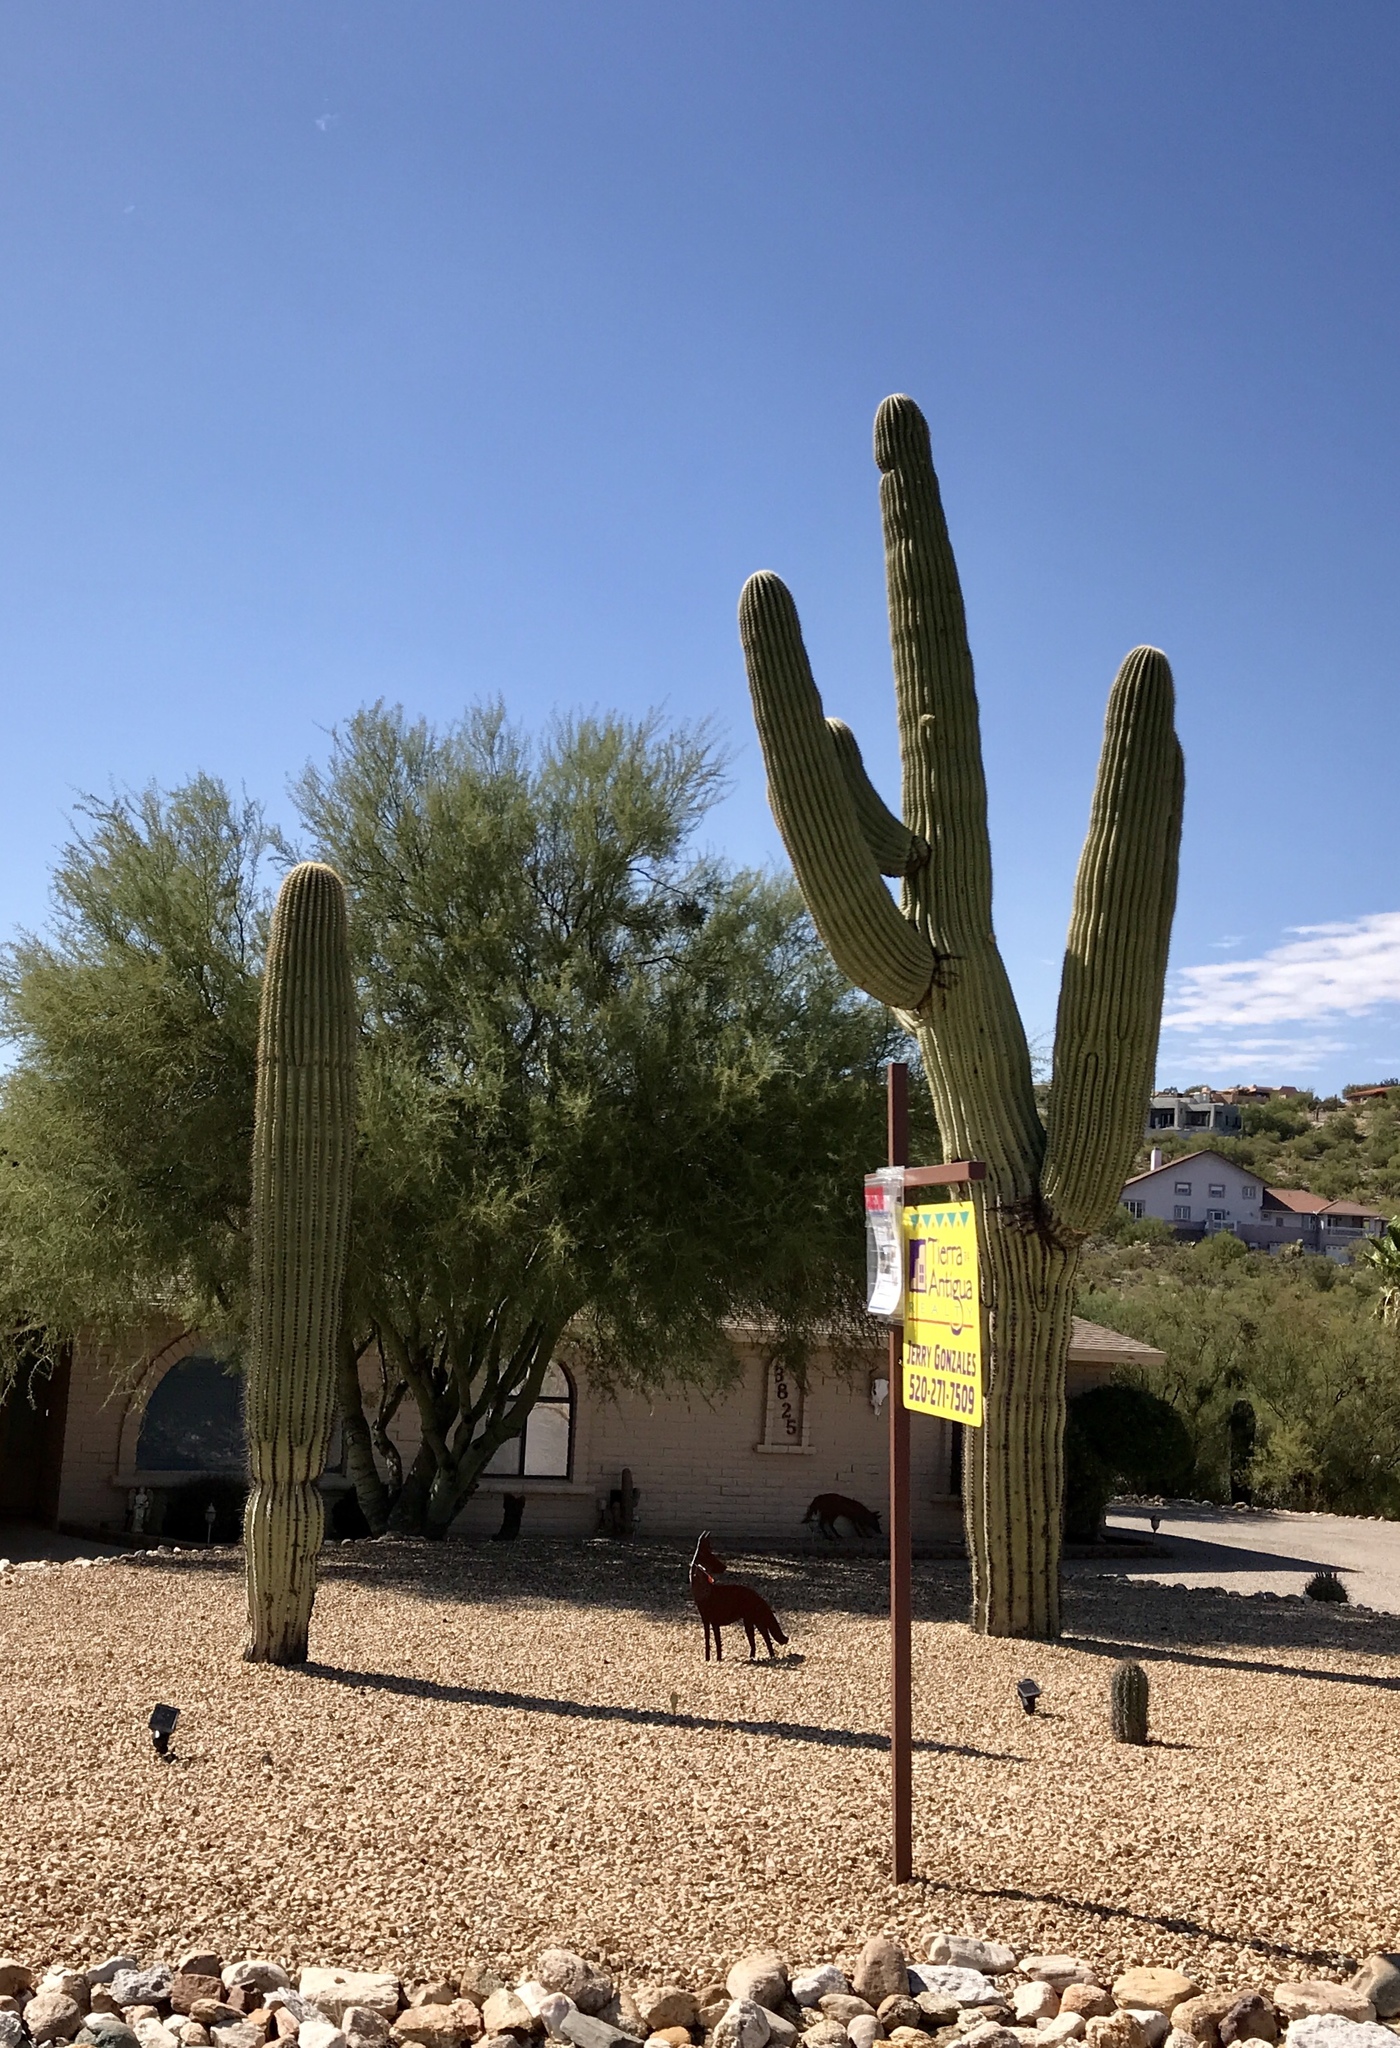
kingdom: Plantae
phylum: Tracheophyta
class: Magnoliopsida
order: Caryophyllales
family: Cactaceae
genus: Carnegiea
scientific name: Carnegiea gigantea
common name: Saguaro
